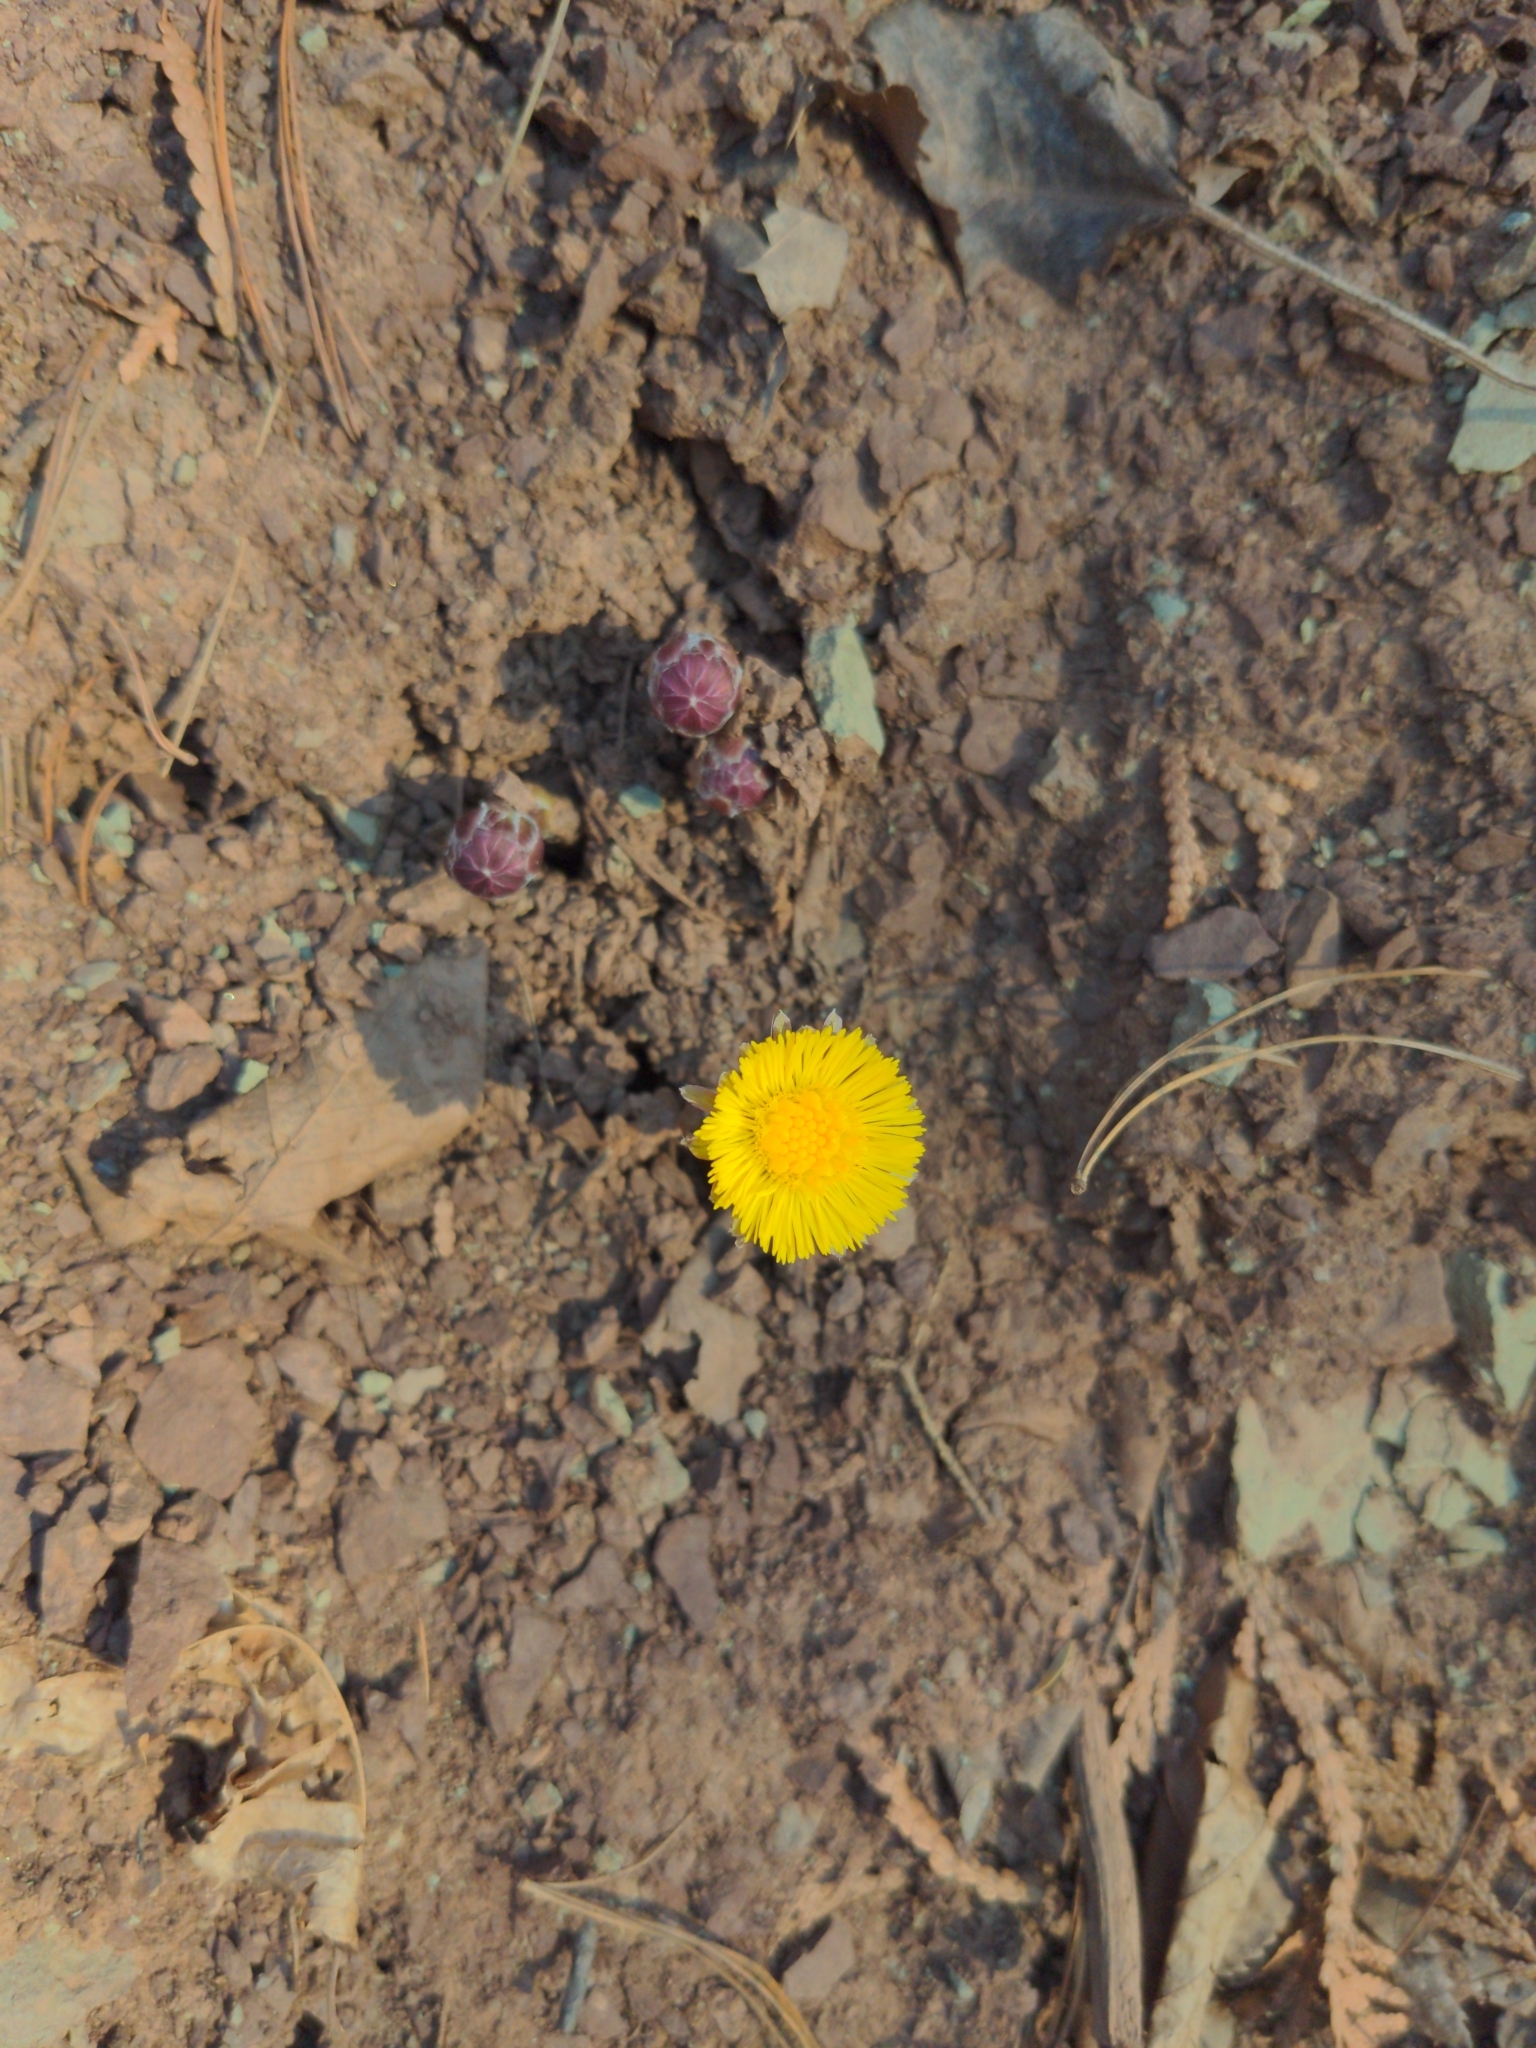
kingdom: Plantae
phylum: Tracheophyta
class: Magnoliopsida
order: Asterales
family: Asteraceae
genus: Tussilago
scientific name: Tussilago farfara
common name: Coltsfoot
